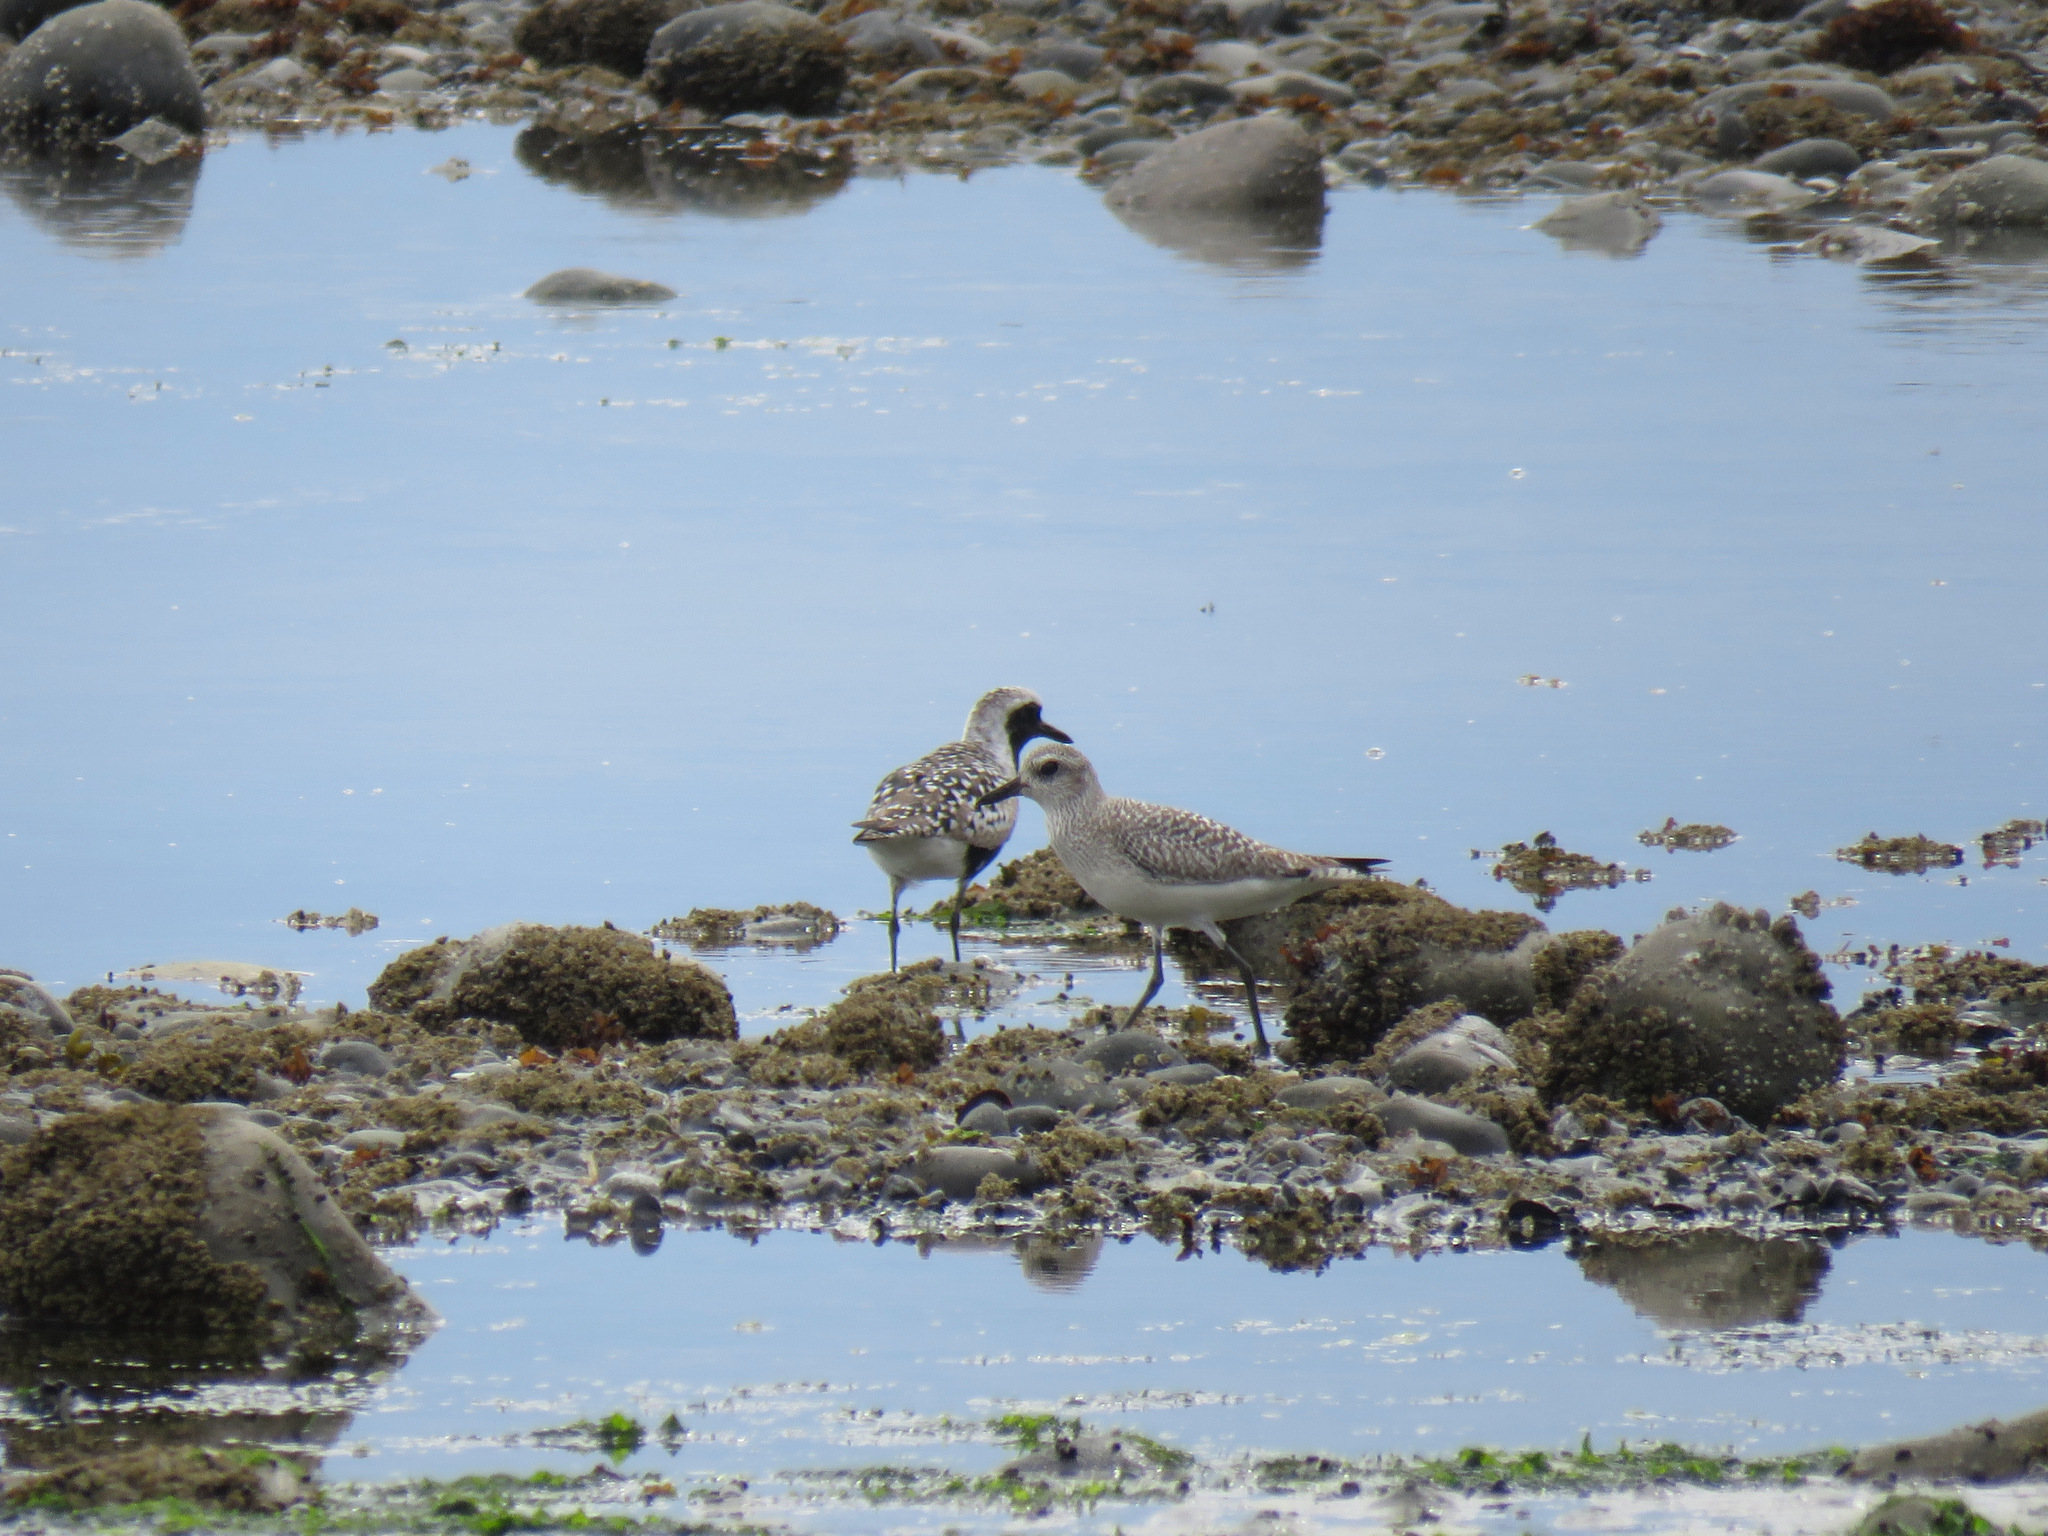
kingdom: Animalia
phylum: Chordata
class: Aves
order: Charadriiformes
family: Charadriidae
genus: Pluvialis
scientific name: Pluvialis squatarola
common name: Grey plover
